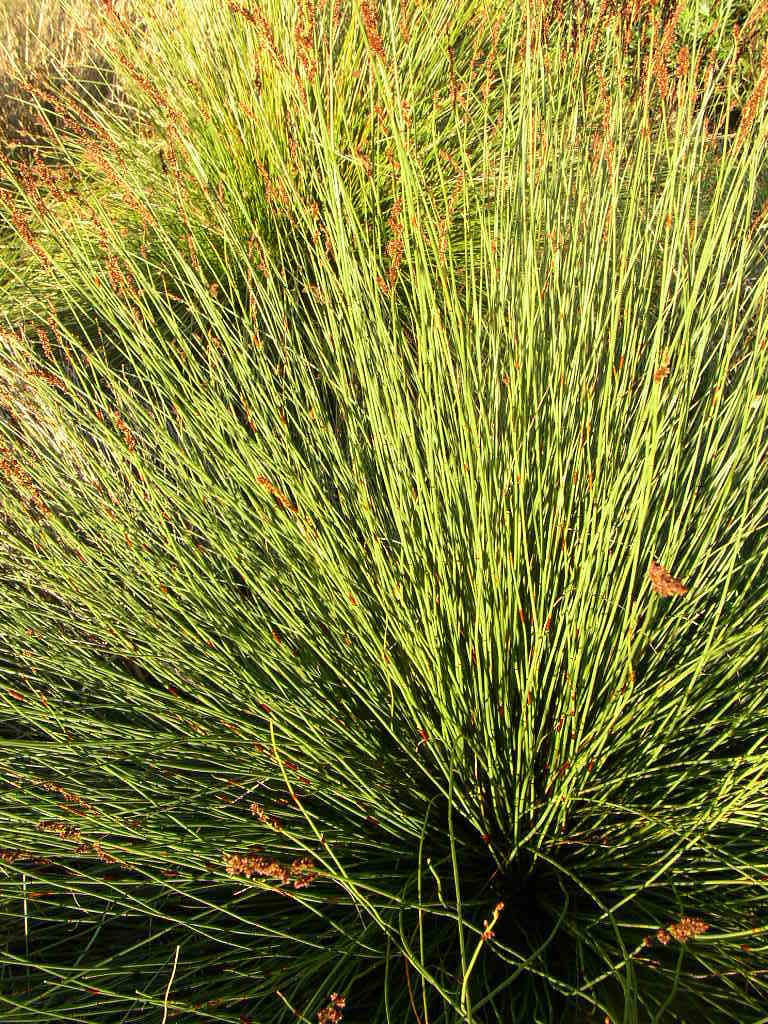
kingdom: Plantae
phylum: Tracheophyta
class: Liliopsida
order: Poales
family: Restionaceae
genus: Elegia
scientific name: Elegia tectorum
